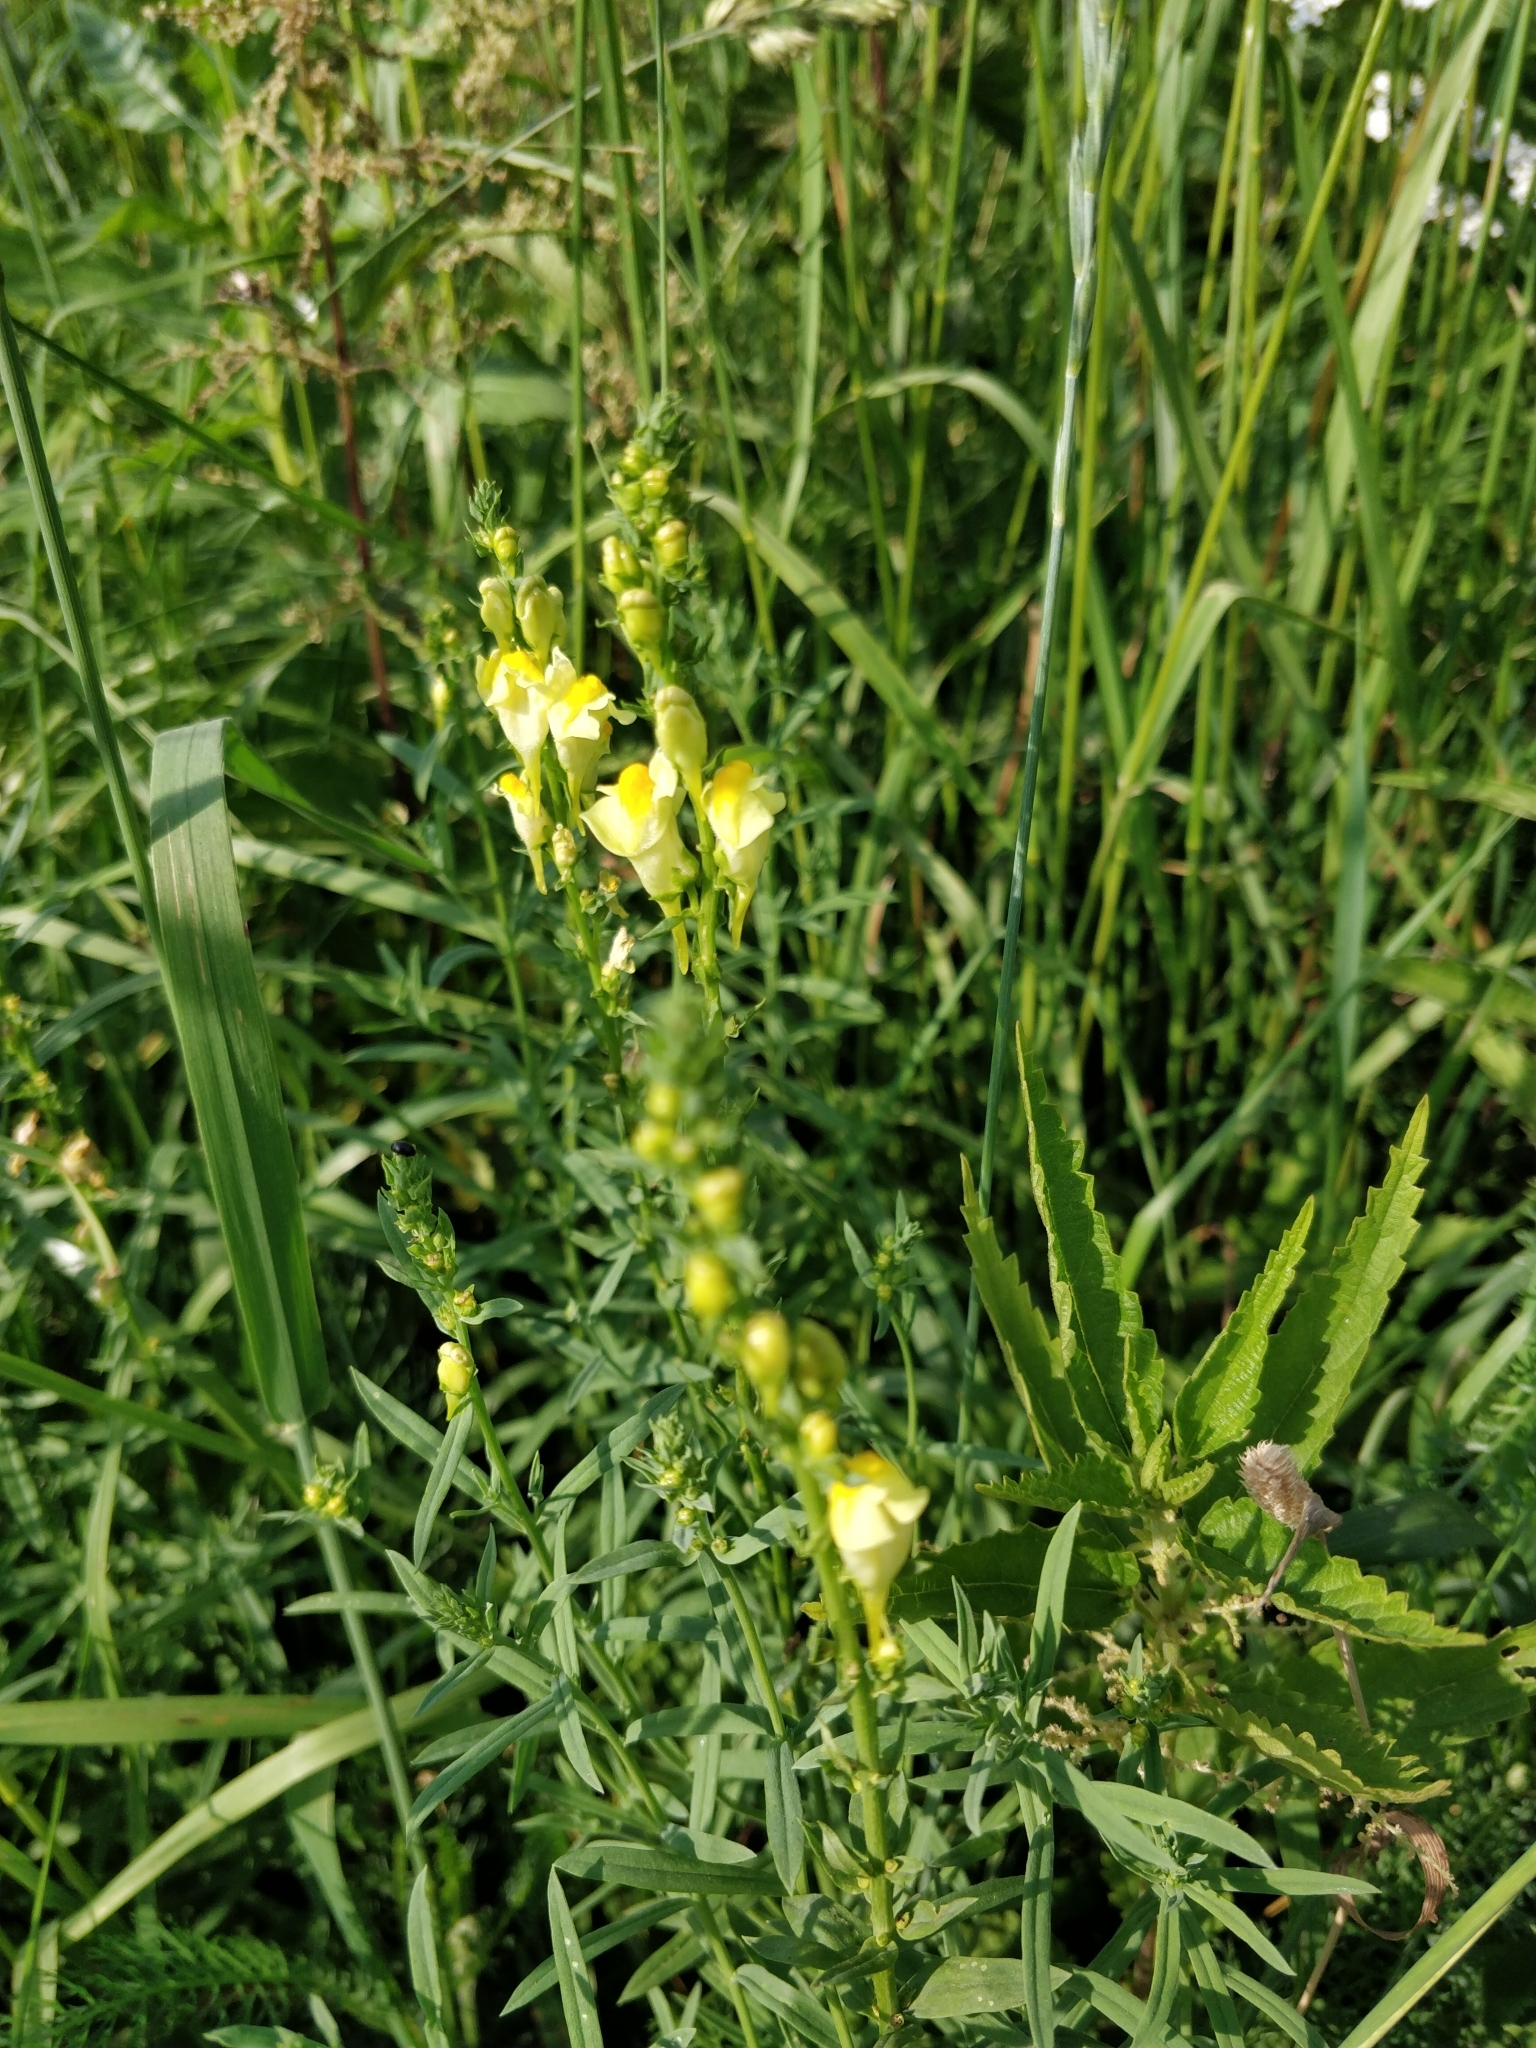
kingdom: Plantae
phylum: Tracheophyta
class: Magnoliopsida
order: Lamiales
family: Plantaginaceae
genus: Linaria
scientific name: Linaria vulgaris
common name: Butter and eggs
